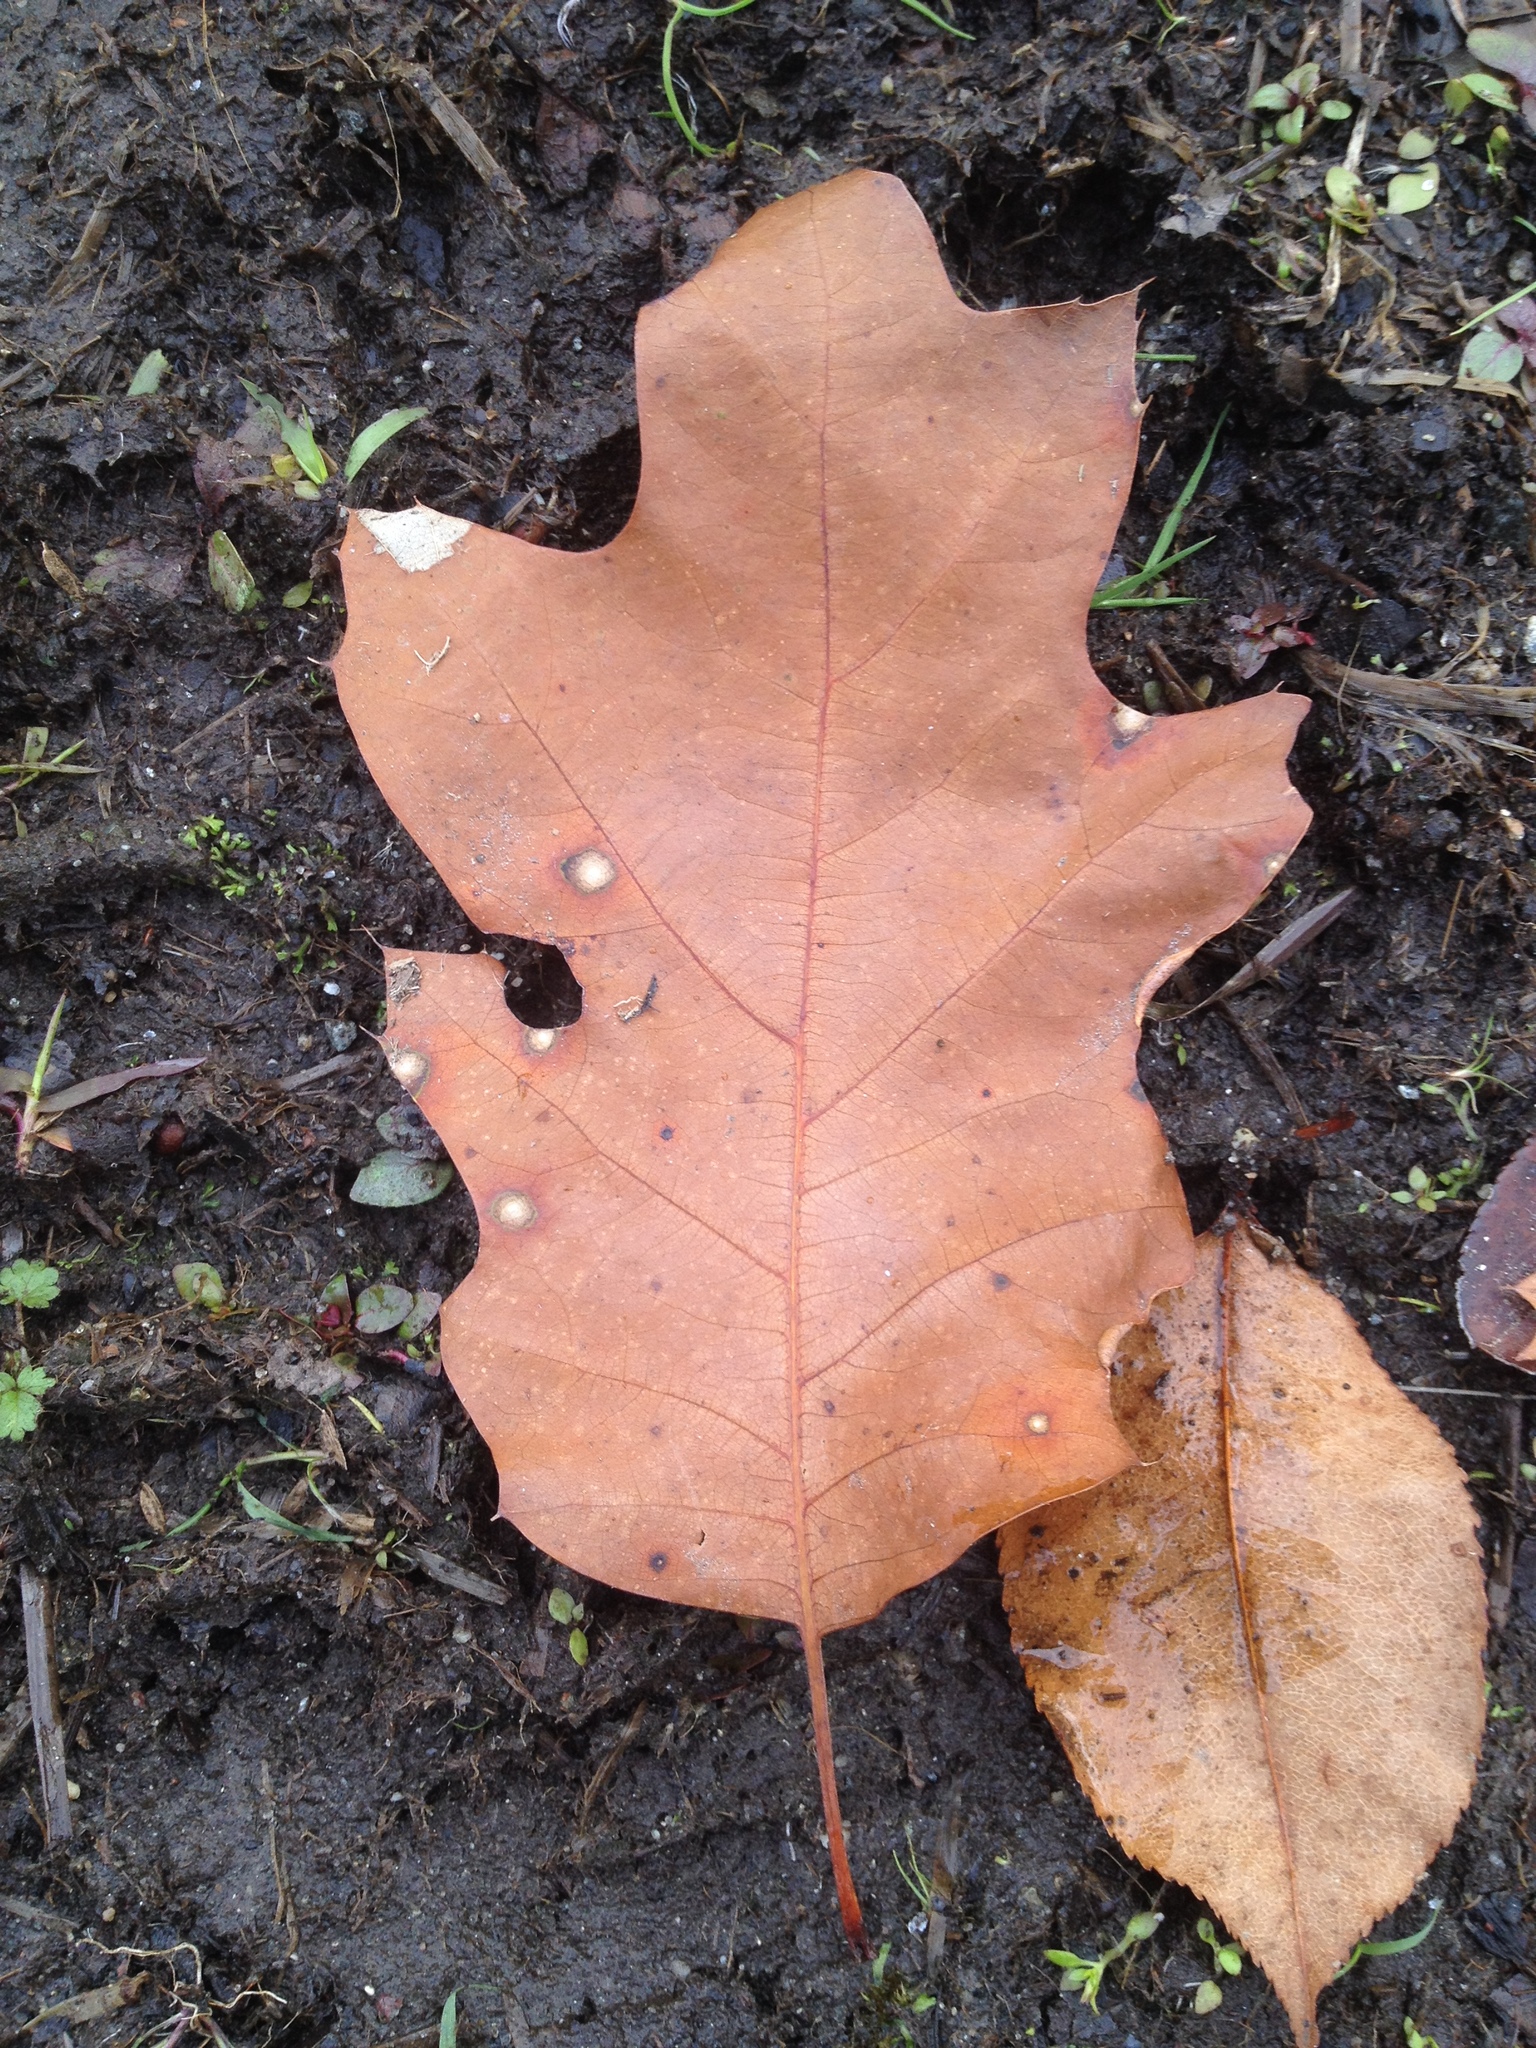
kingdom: Plantae
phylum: Tracheophyta
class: Magnoliopsida
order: Fagales
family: Fagaceae
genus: Quercus
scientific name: Quercus rubra
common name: Red oak
